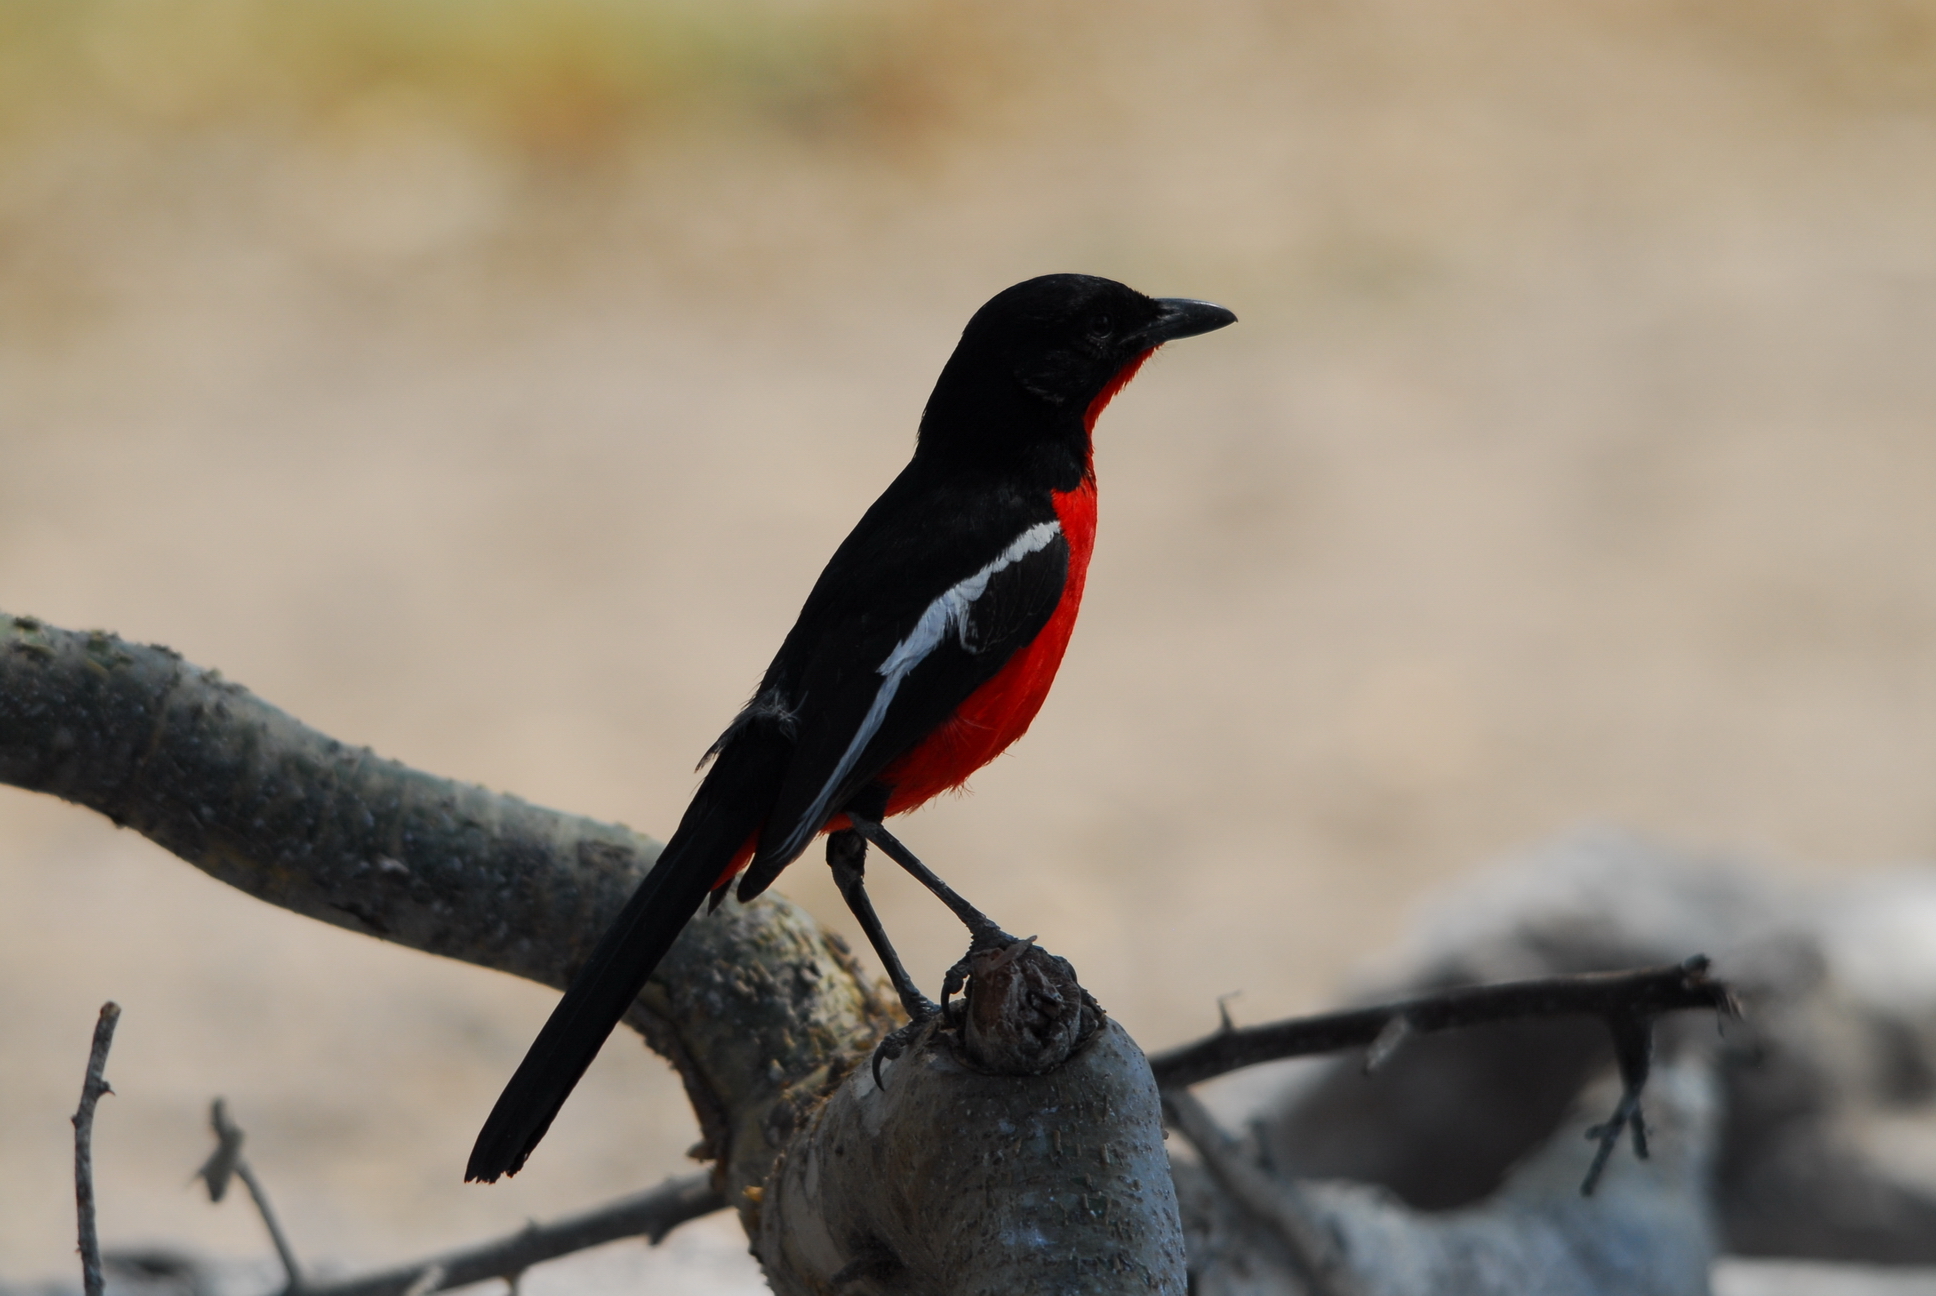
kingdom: Animalia
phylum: Chordata
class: Aves
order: Passeriformes
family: Malaconotidae
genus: Laniarius
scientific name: Laniarius atrococcineus
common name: Crimson-breasted shrike
